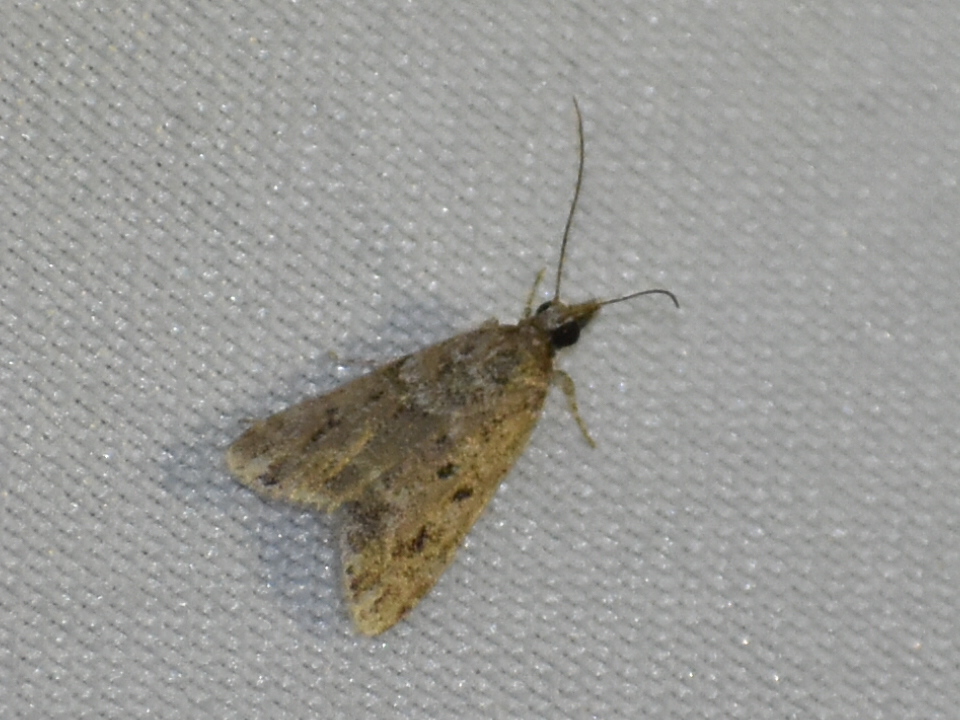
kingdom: Animalia
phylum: Arthropoda
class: Insecta
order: Lepidoptera
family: Crambidae
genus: Eudonia
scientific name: Eudonia heterosalis
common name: Mcdunnough's eudonia
